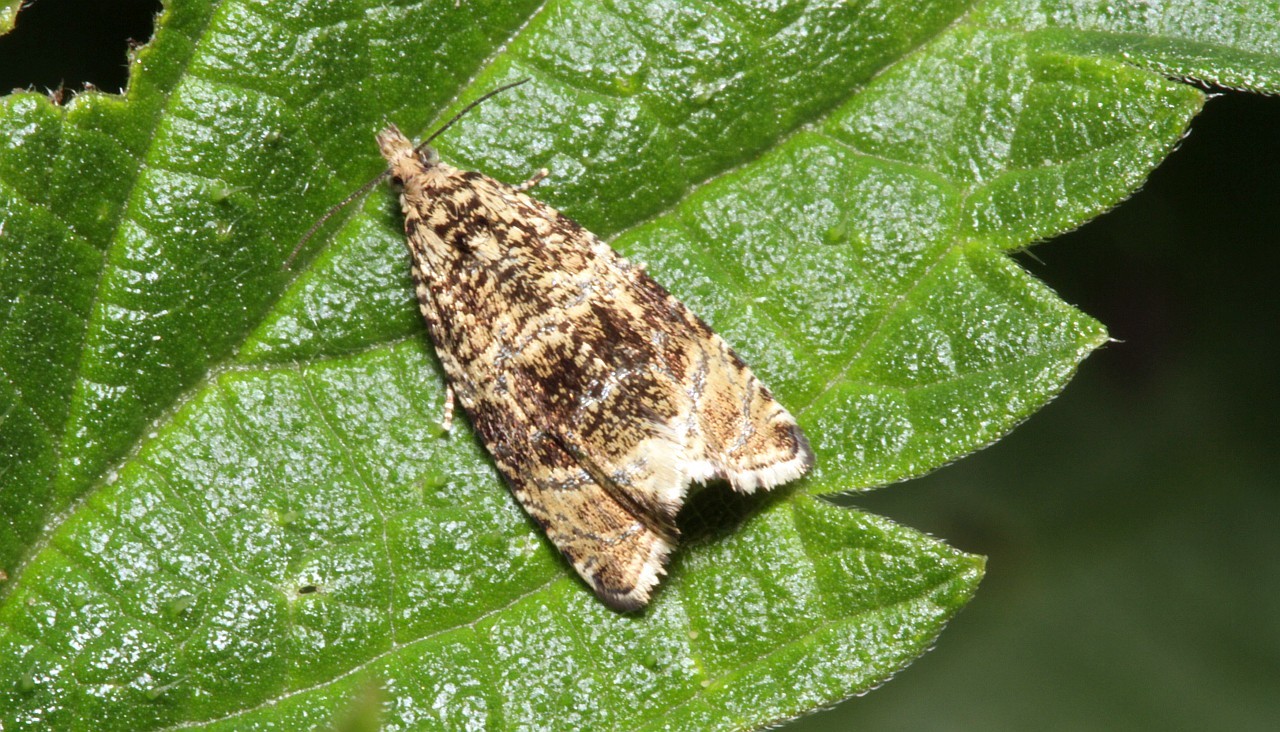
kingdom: Animalia
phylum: Arthropoda
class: Insecta
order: Lepidoptera
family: Tortricidae
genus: Syricoris
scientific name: Syricoris lacunana
